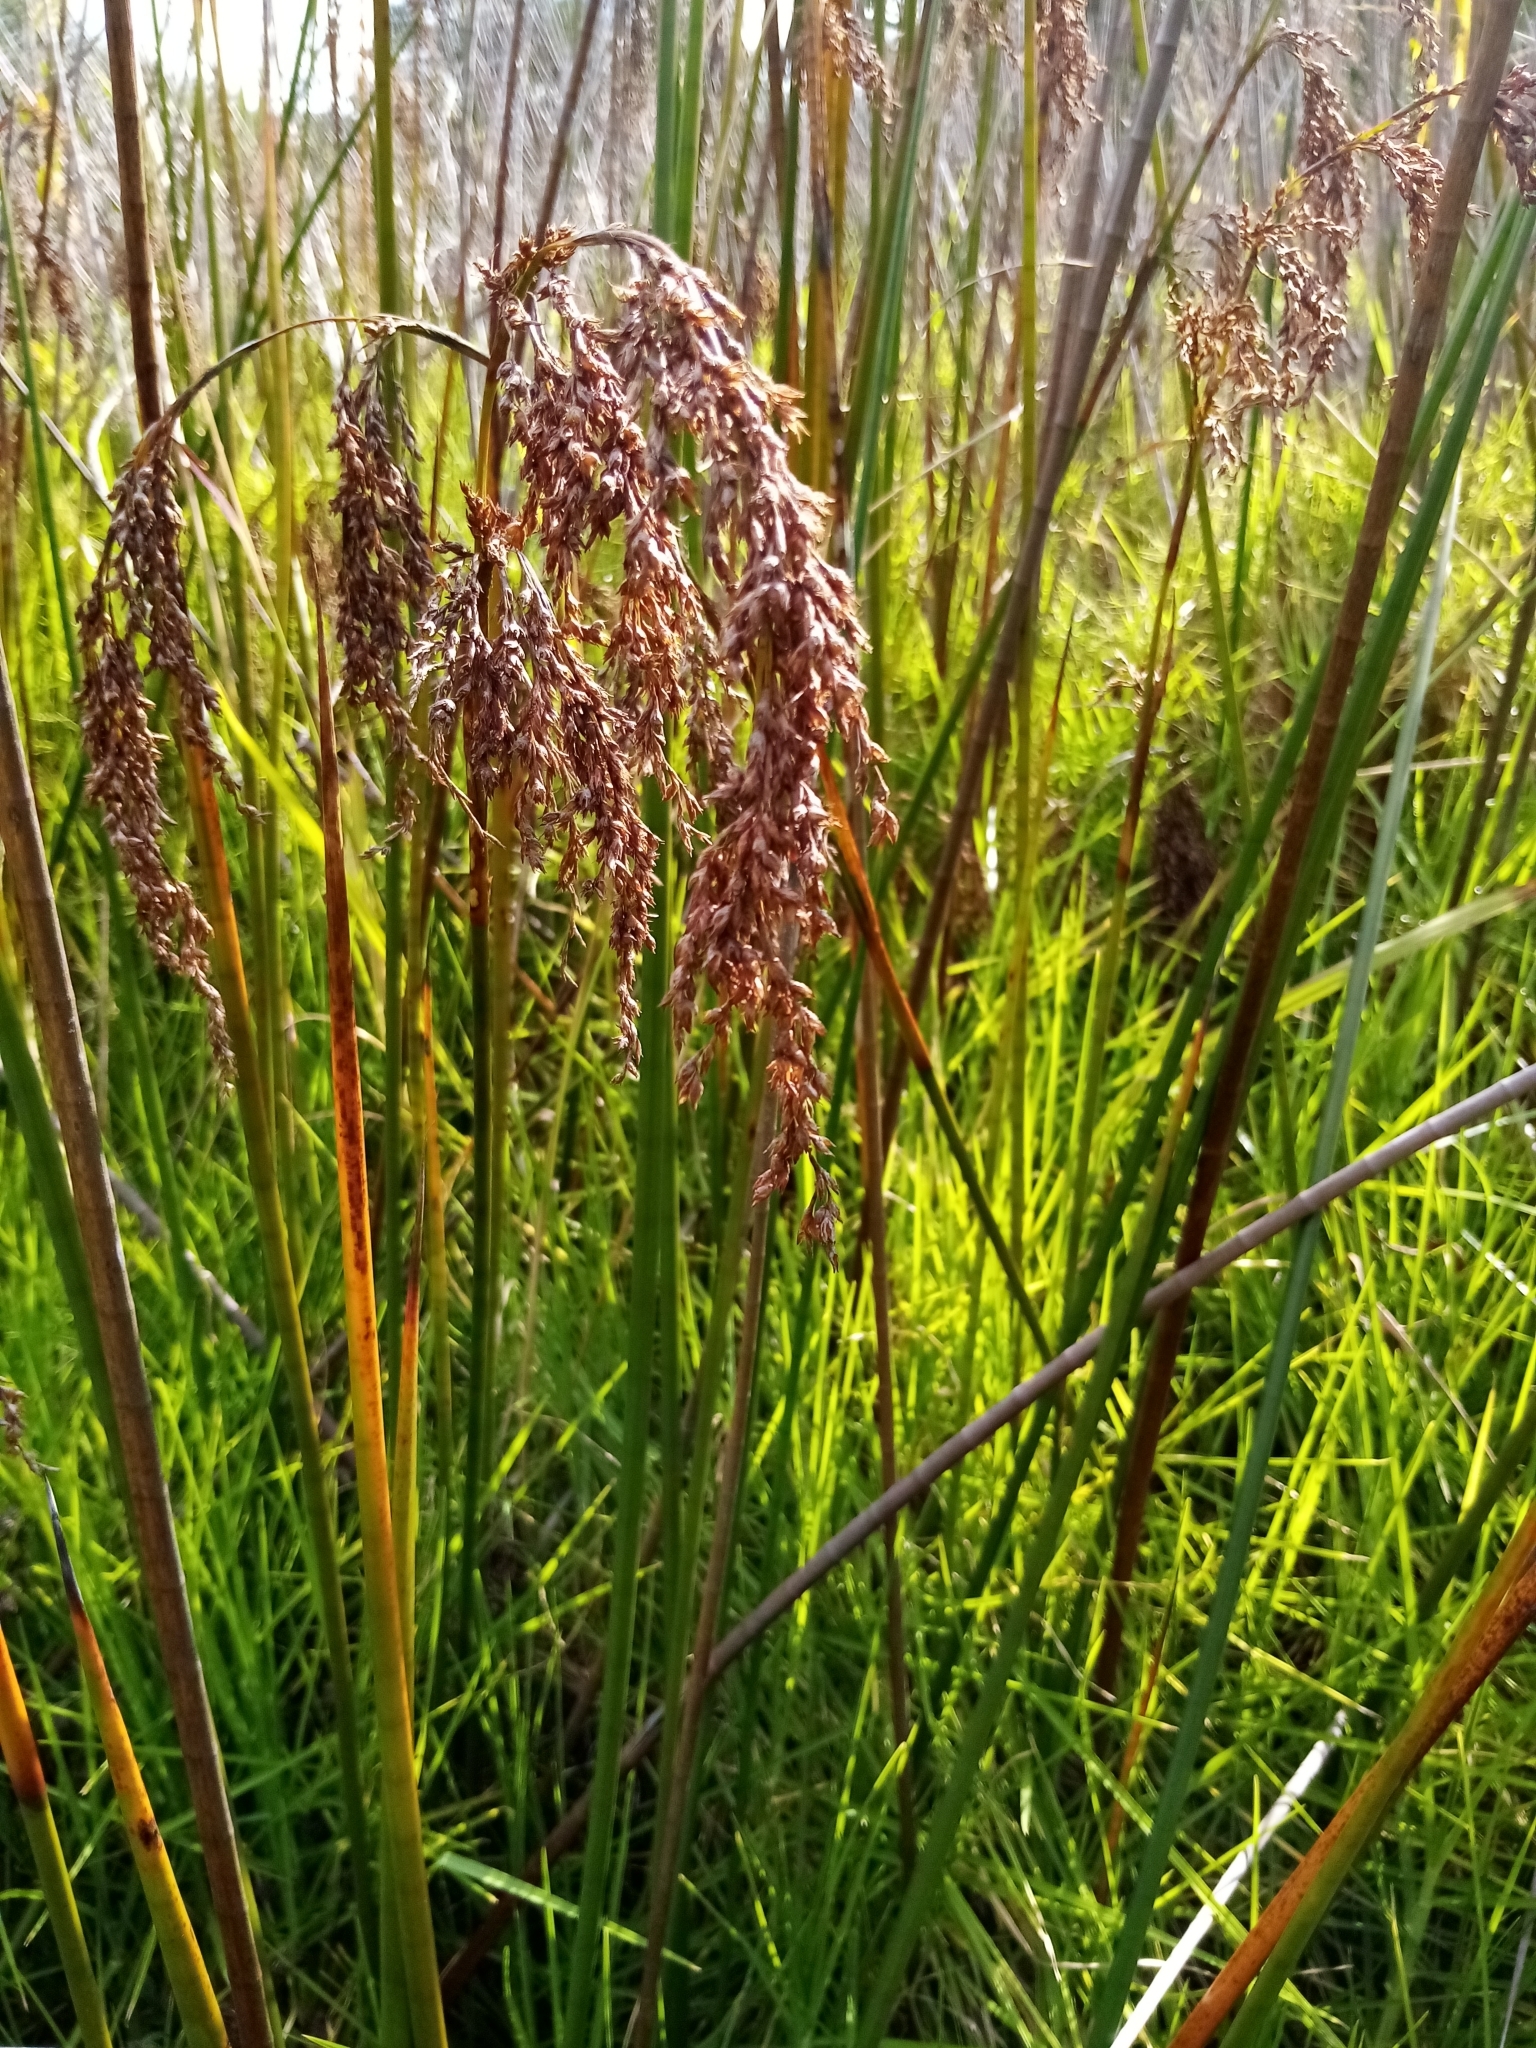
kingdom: Plantae
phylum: Tracheophyta
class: Liliopsida
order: Poales
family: Cyperaceae
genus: Machaerina
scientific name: Machaerina articulata
